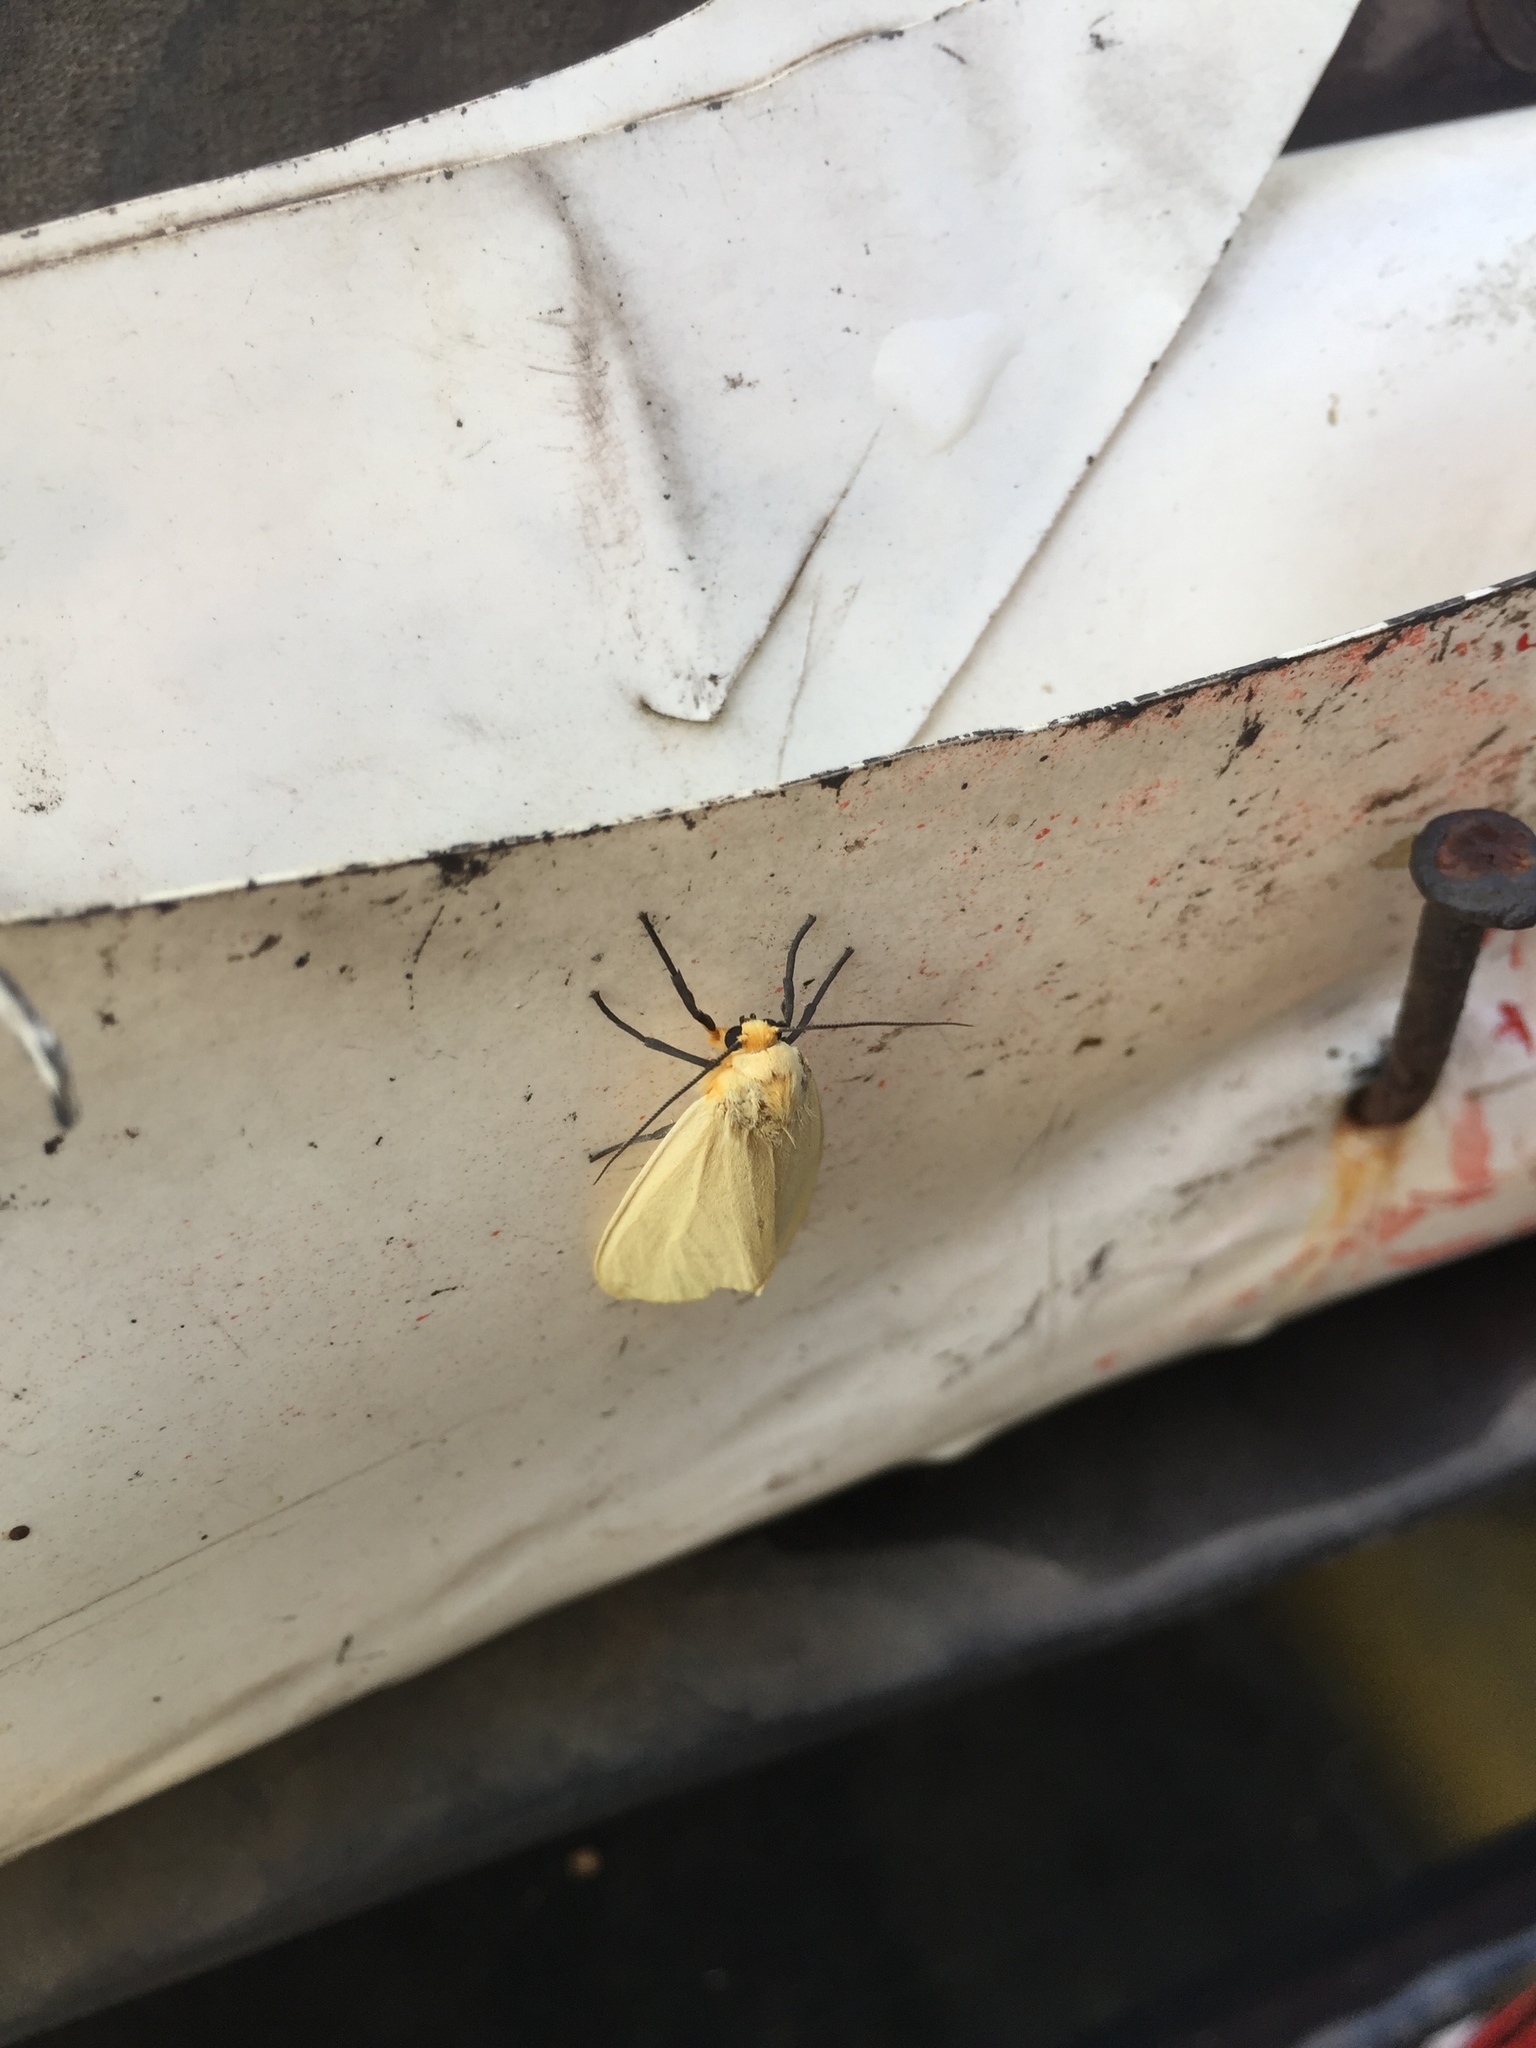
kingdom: Animalia
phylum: Arthropoda
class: Insecta
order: Lepidoptera
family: Erebidae
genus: Pareuchaetes
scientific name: Pareuchaetes insulata
